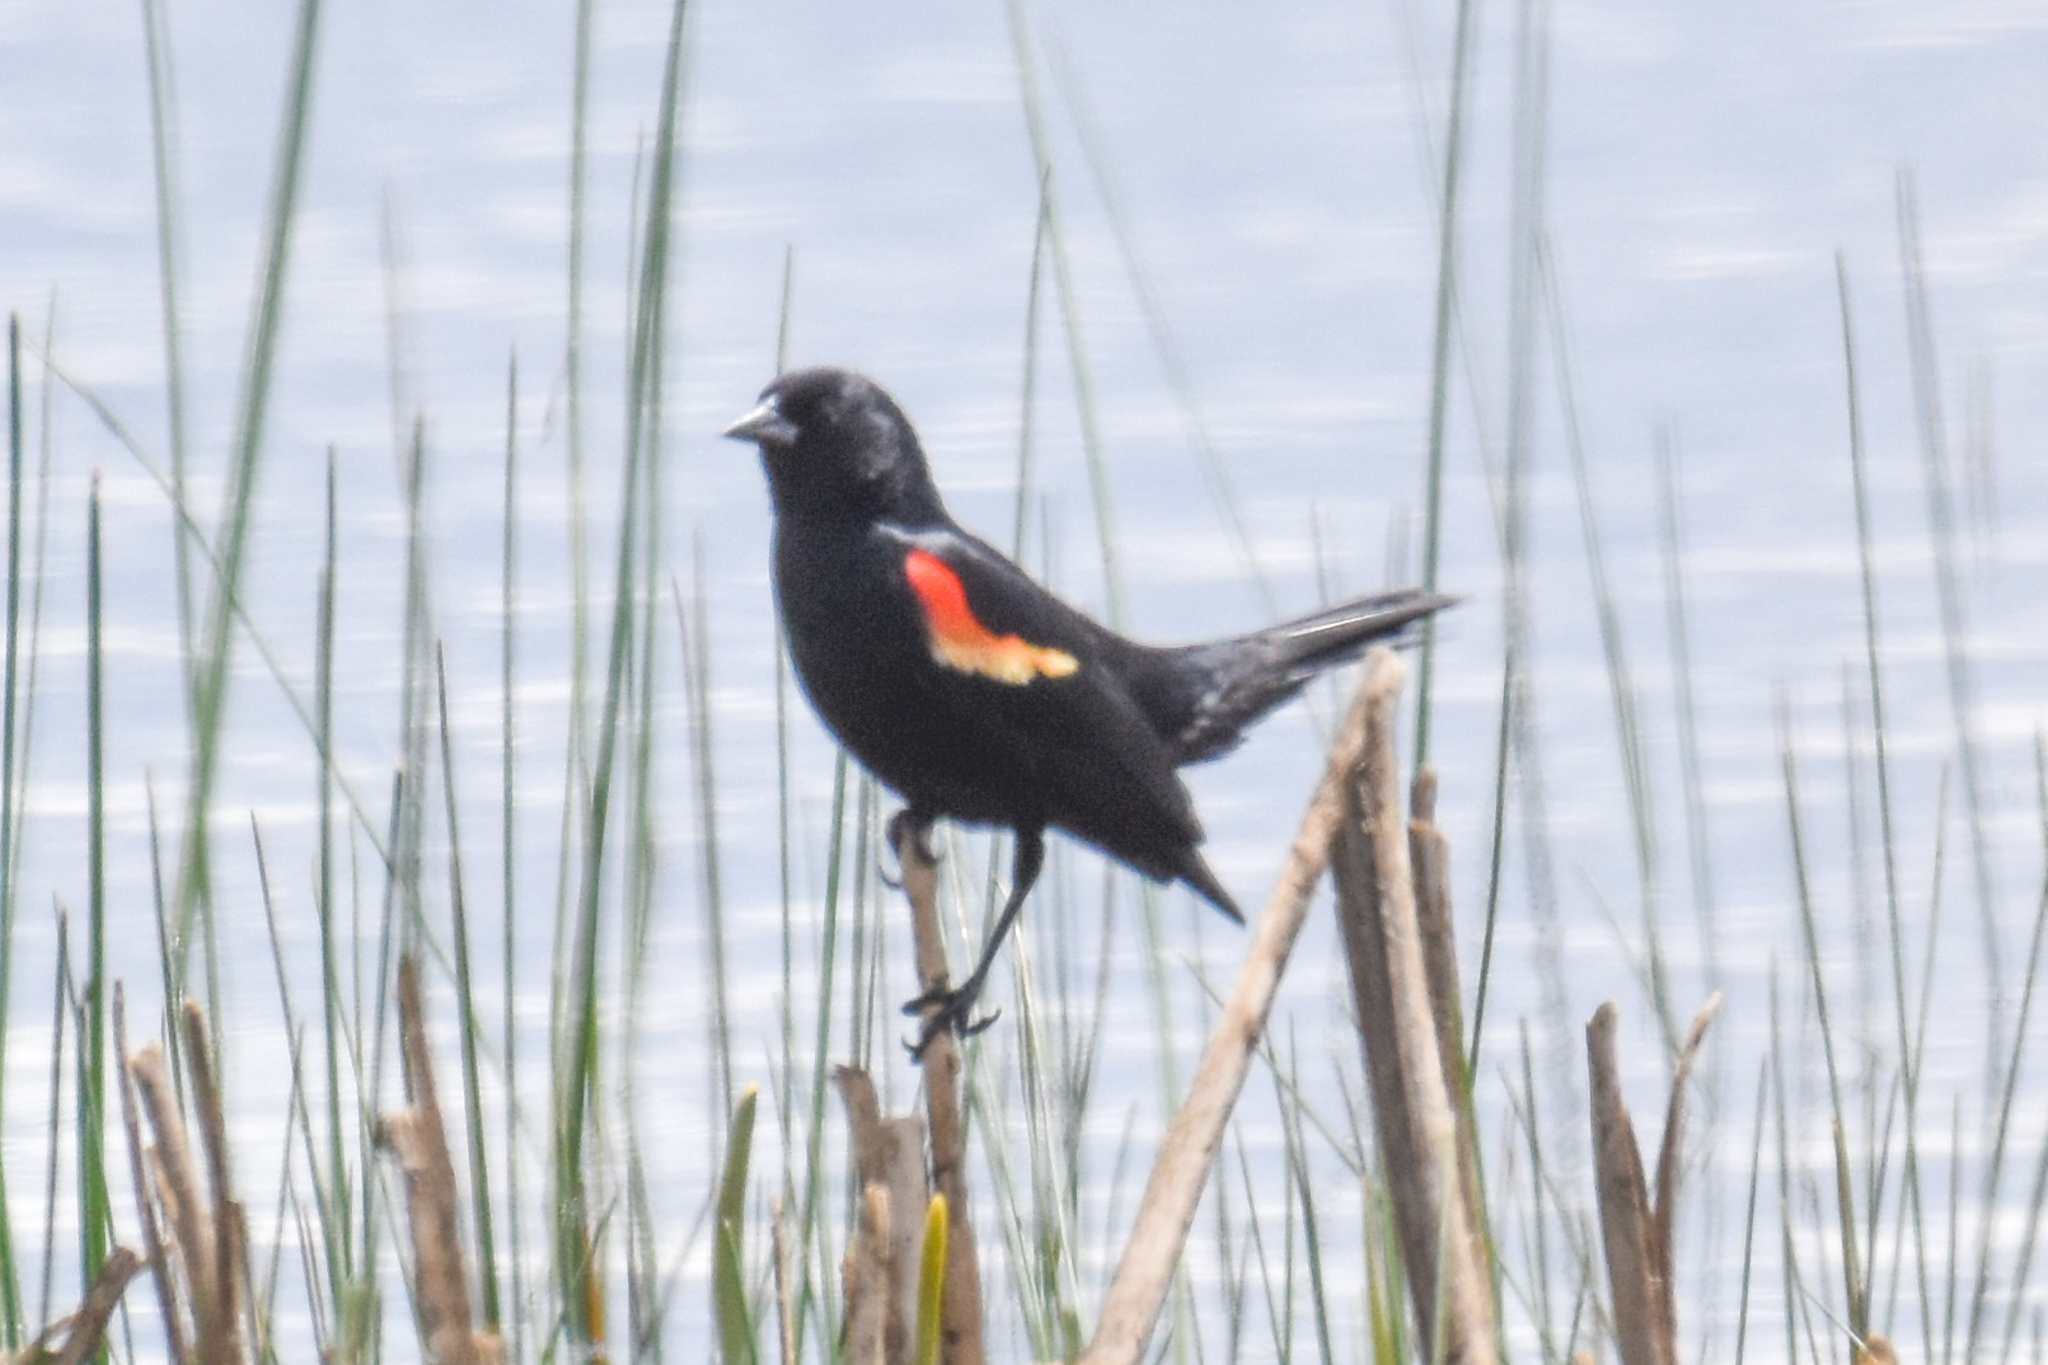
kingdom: Animalia
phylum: Chordata
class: Aves
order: Passeriformes
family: Icteridae
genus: Agelaius
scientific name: Agelaius phoeniceus
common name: Red-winged blackbird
